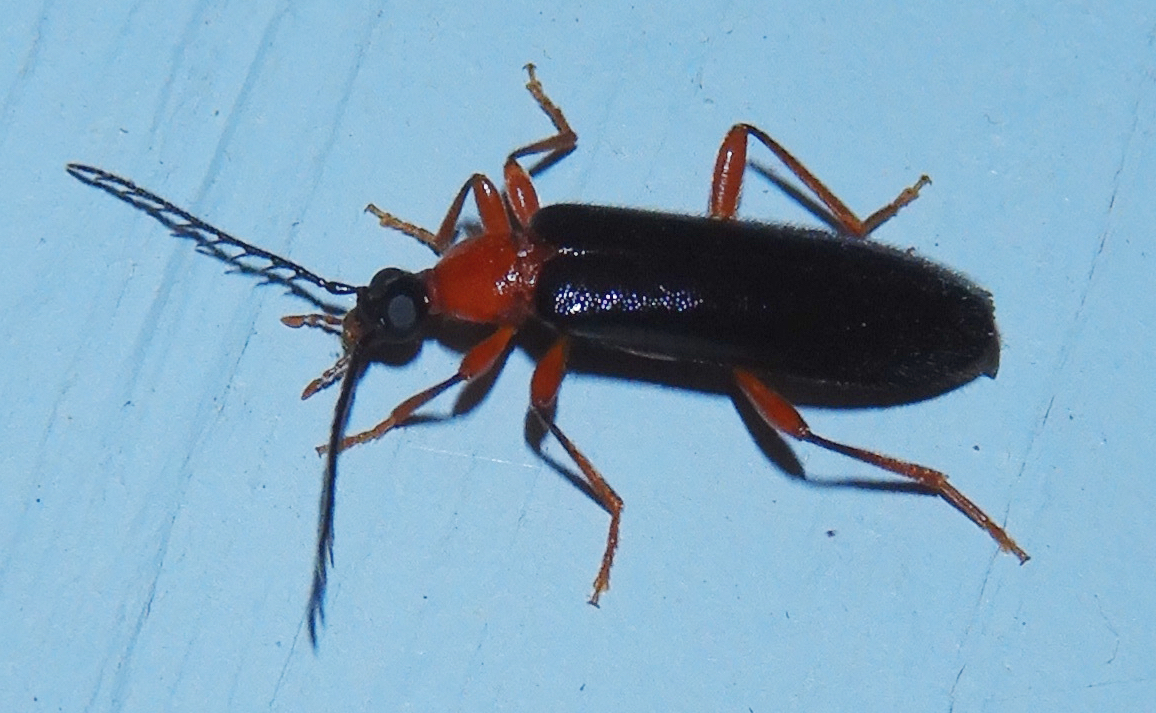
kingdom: Animalia
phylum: Arthropoda
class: Insecta
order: Coleoptera
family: Pyrochroidae
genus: Dendroides
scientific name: Dendroides canadensis
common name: Canada fire-colored beetle
